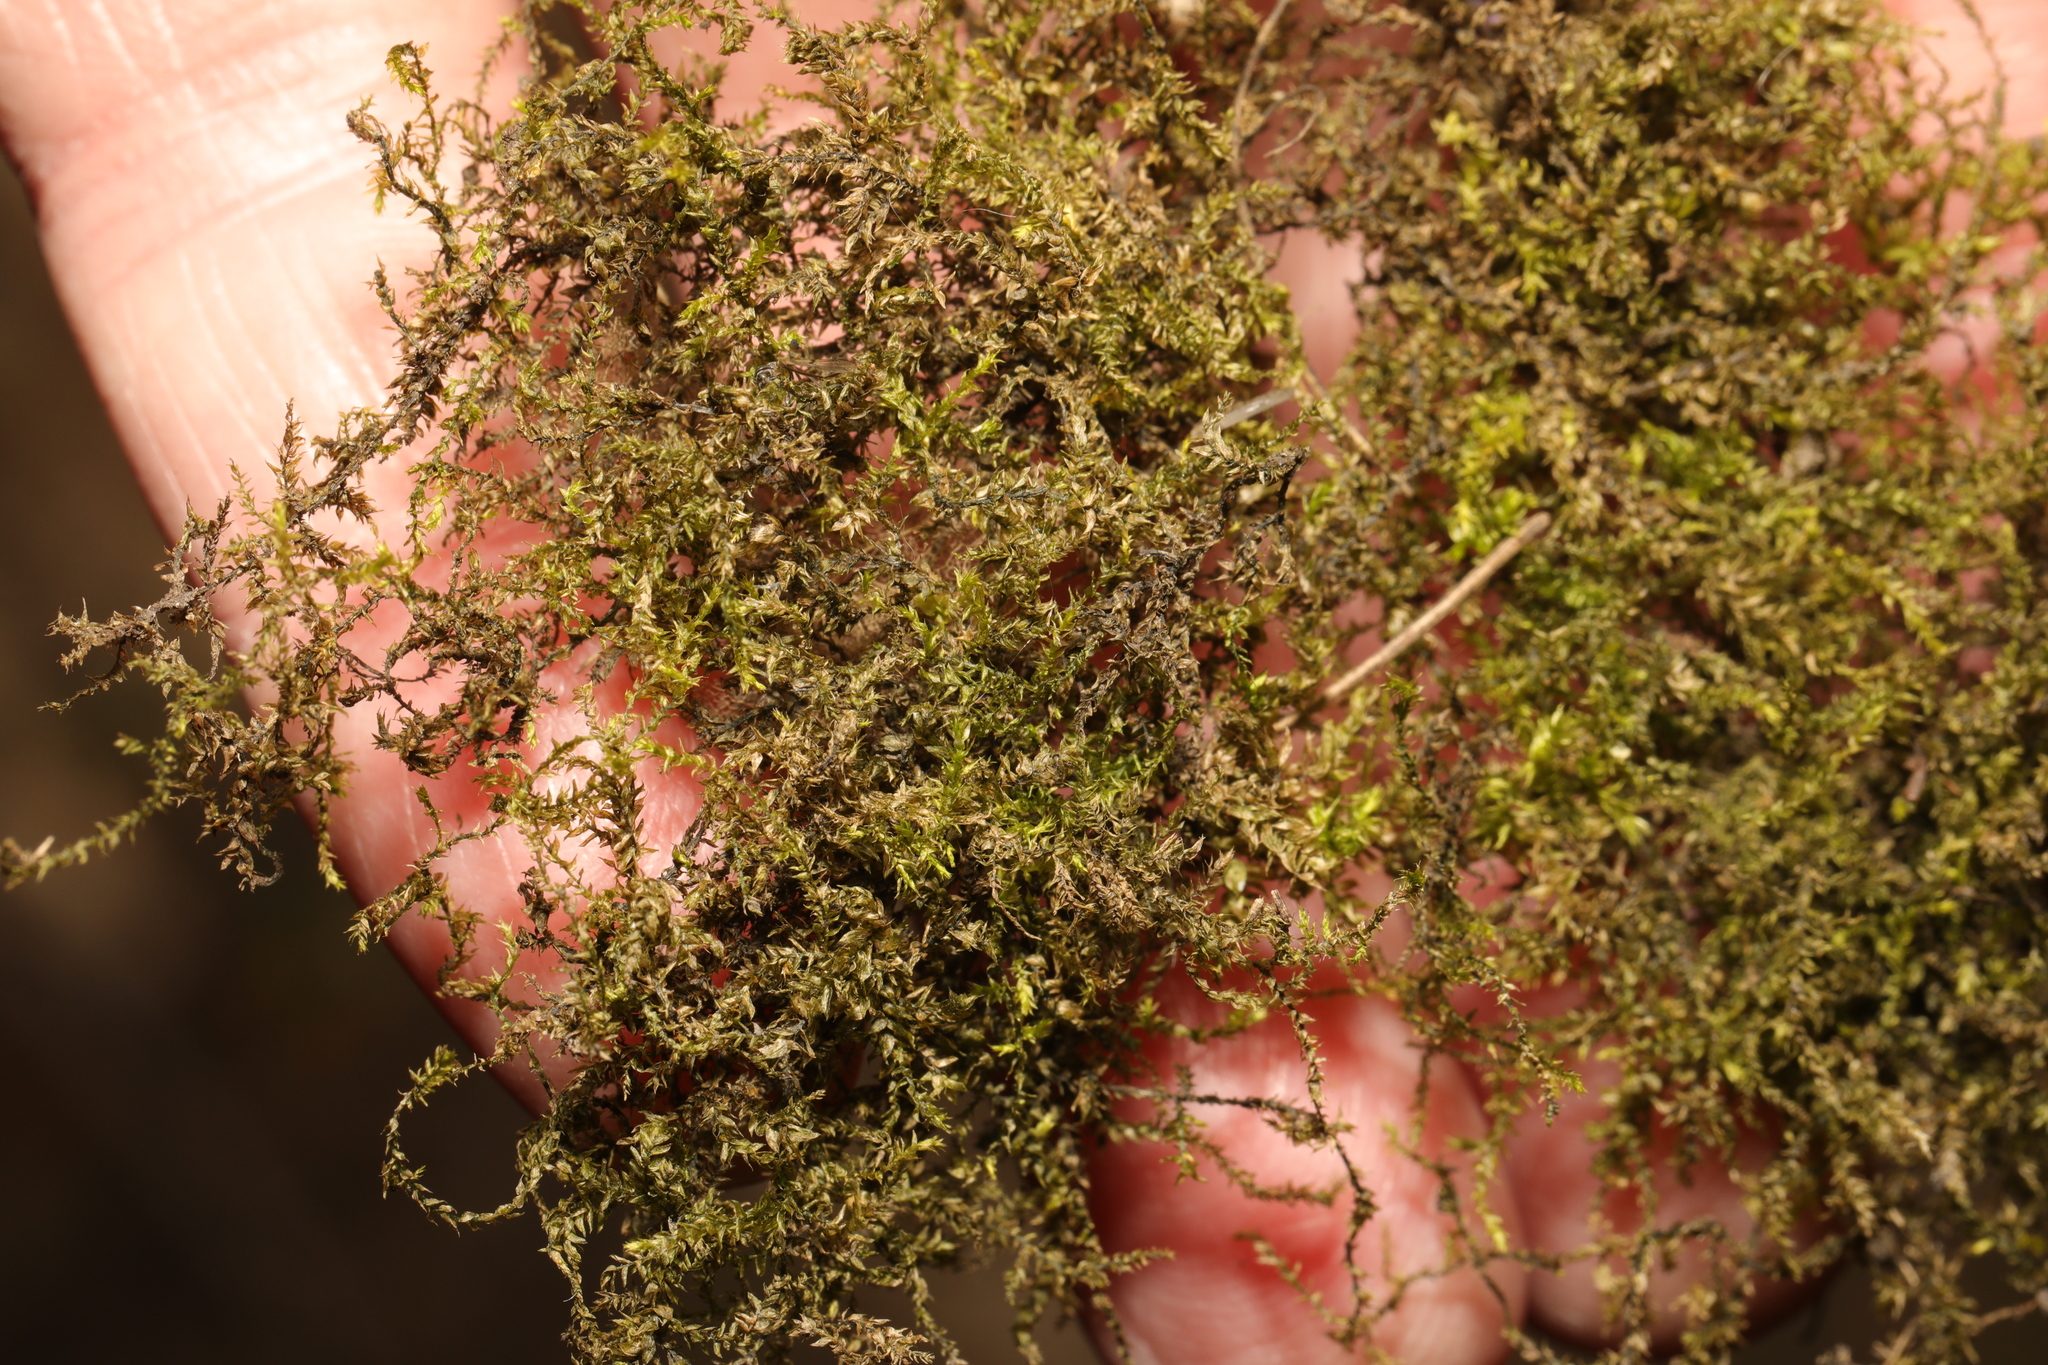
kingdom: Plantae
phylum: Bryophyta
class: Bryopsida
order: Hypnales
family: Brachytheciaceae
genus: Oxyrrhynchium
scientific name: Oxyrrhynchium hians
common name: Spreading beaked moss
